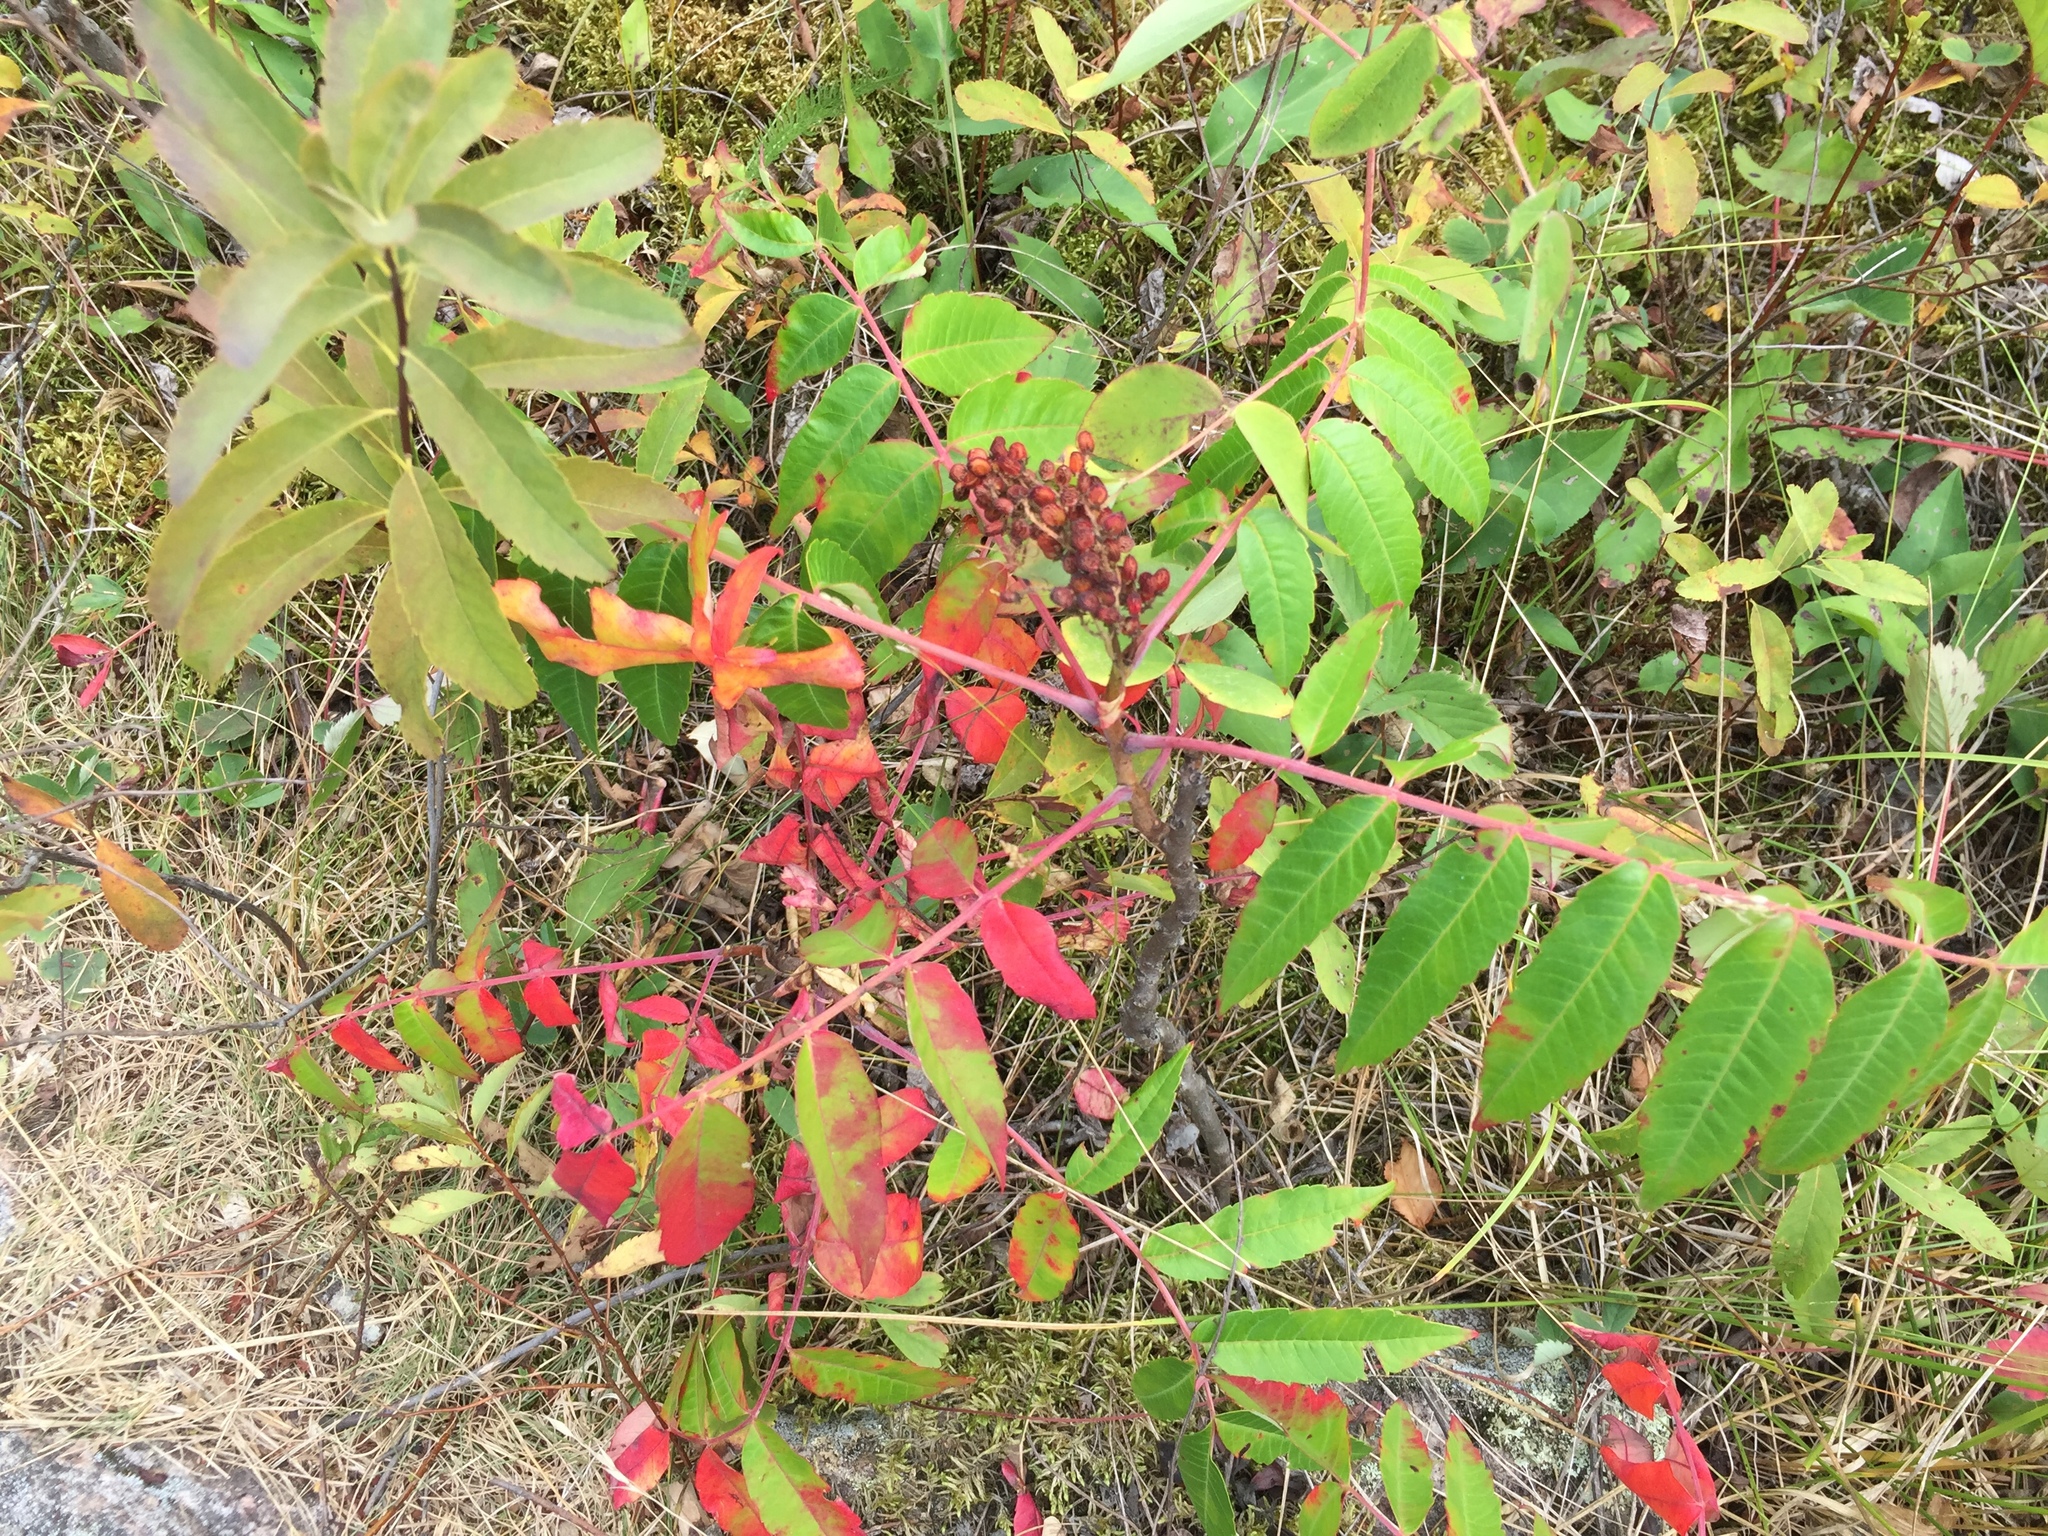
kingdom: Plantae
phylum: Tracheophyta
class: Magnoliopsida
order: Sapindales
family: Anacardiaceae
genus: Rhus
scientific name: Rhus glabra
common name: Scarlet sumac
